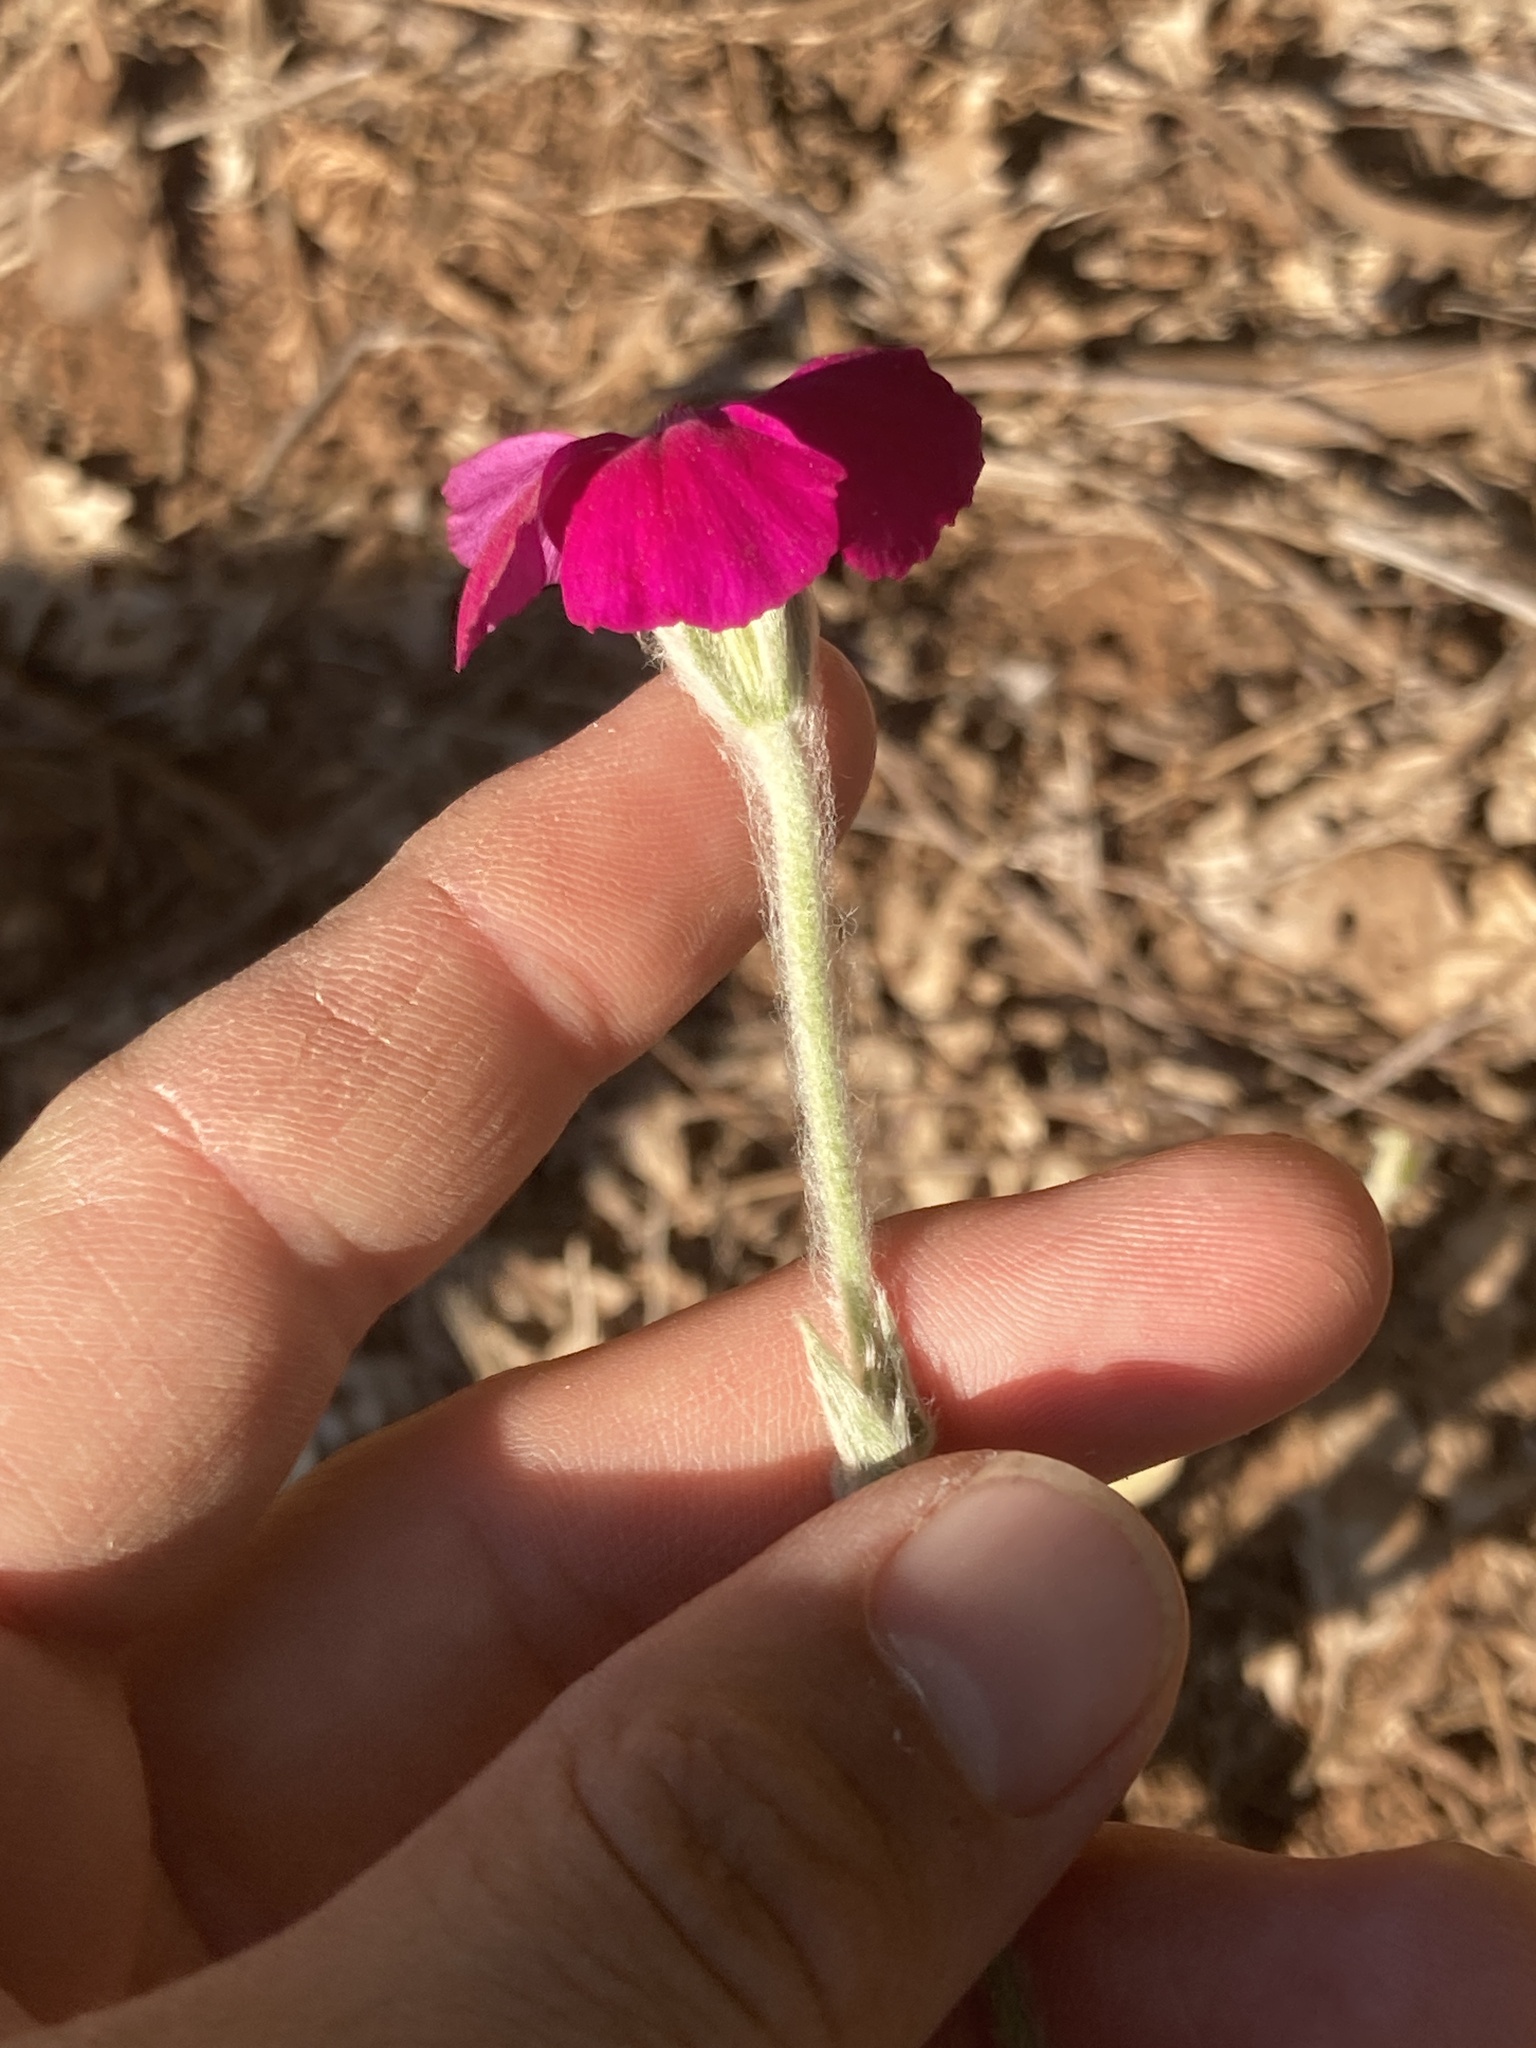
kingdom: Plantae
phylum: Tracheophyta
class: Magnoliopsida
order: Caryophyllales
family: Caryophyllaceae
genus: Silene
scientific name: Silene coronaria
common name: Rose campion
